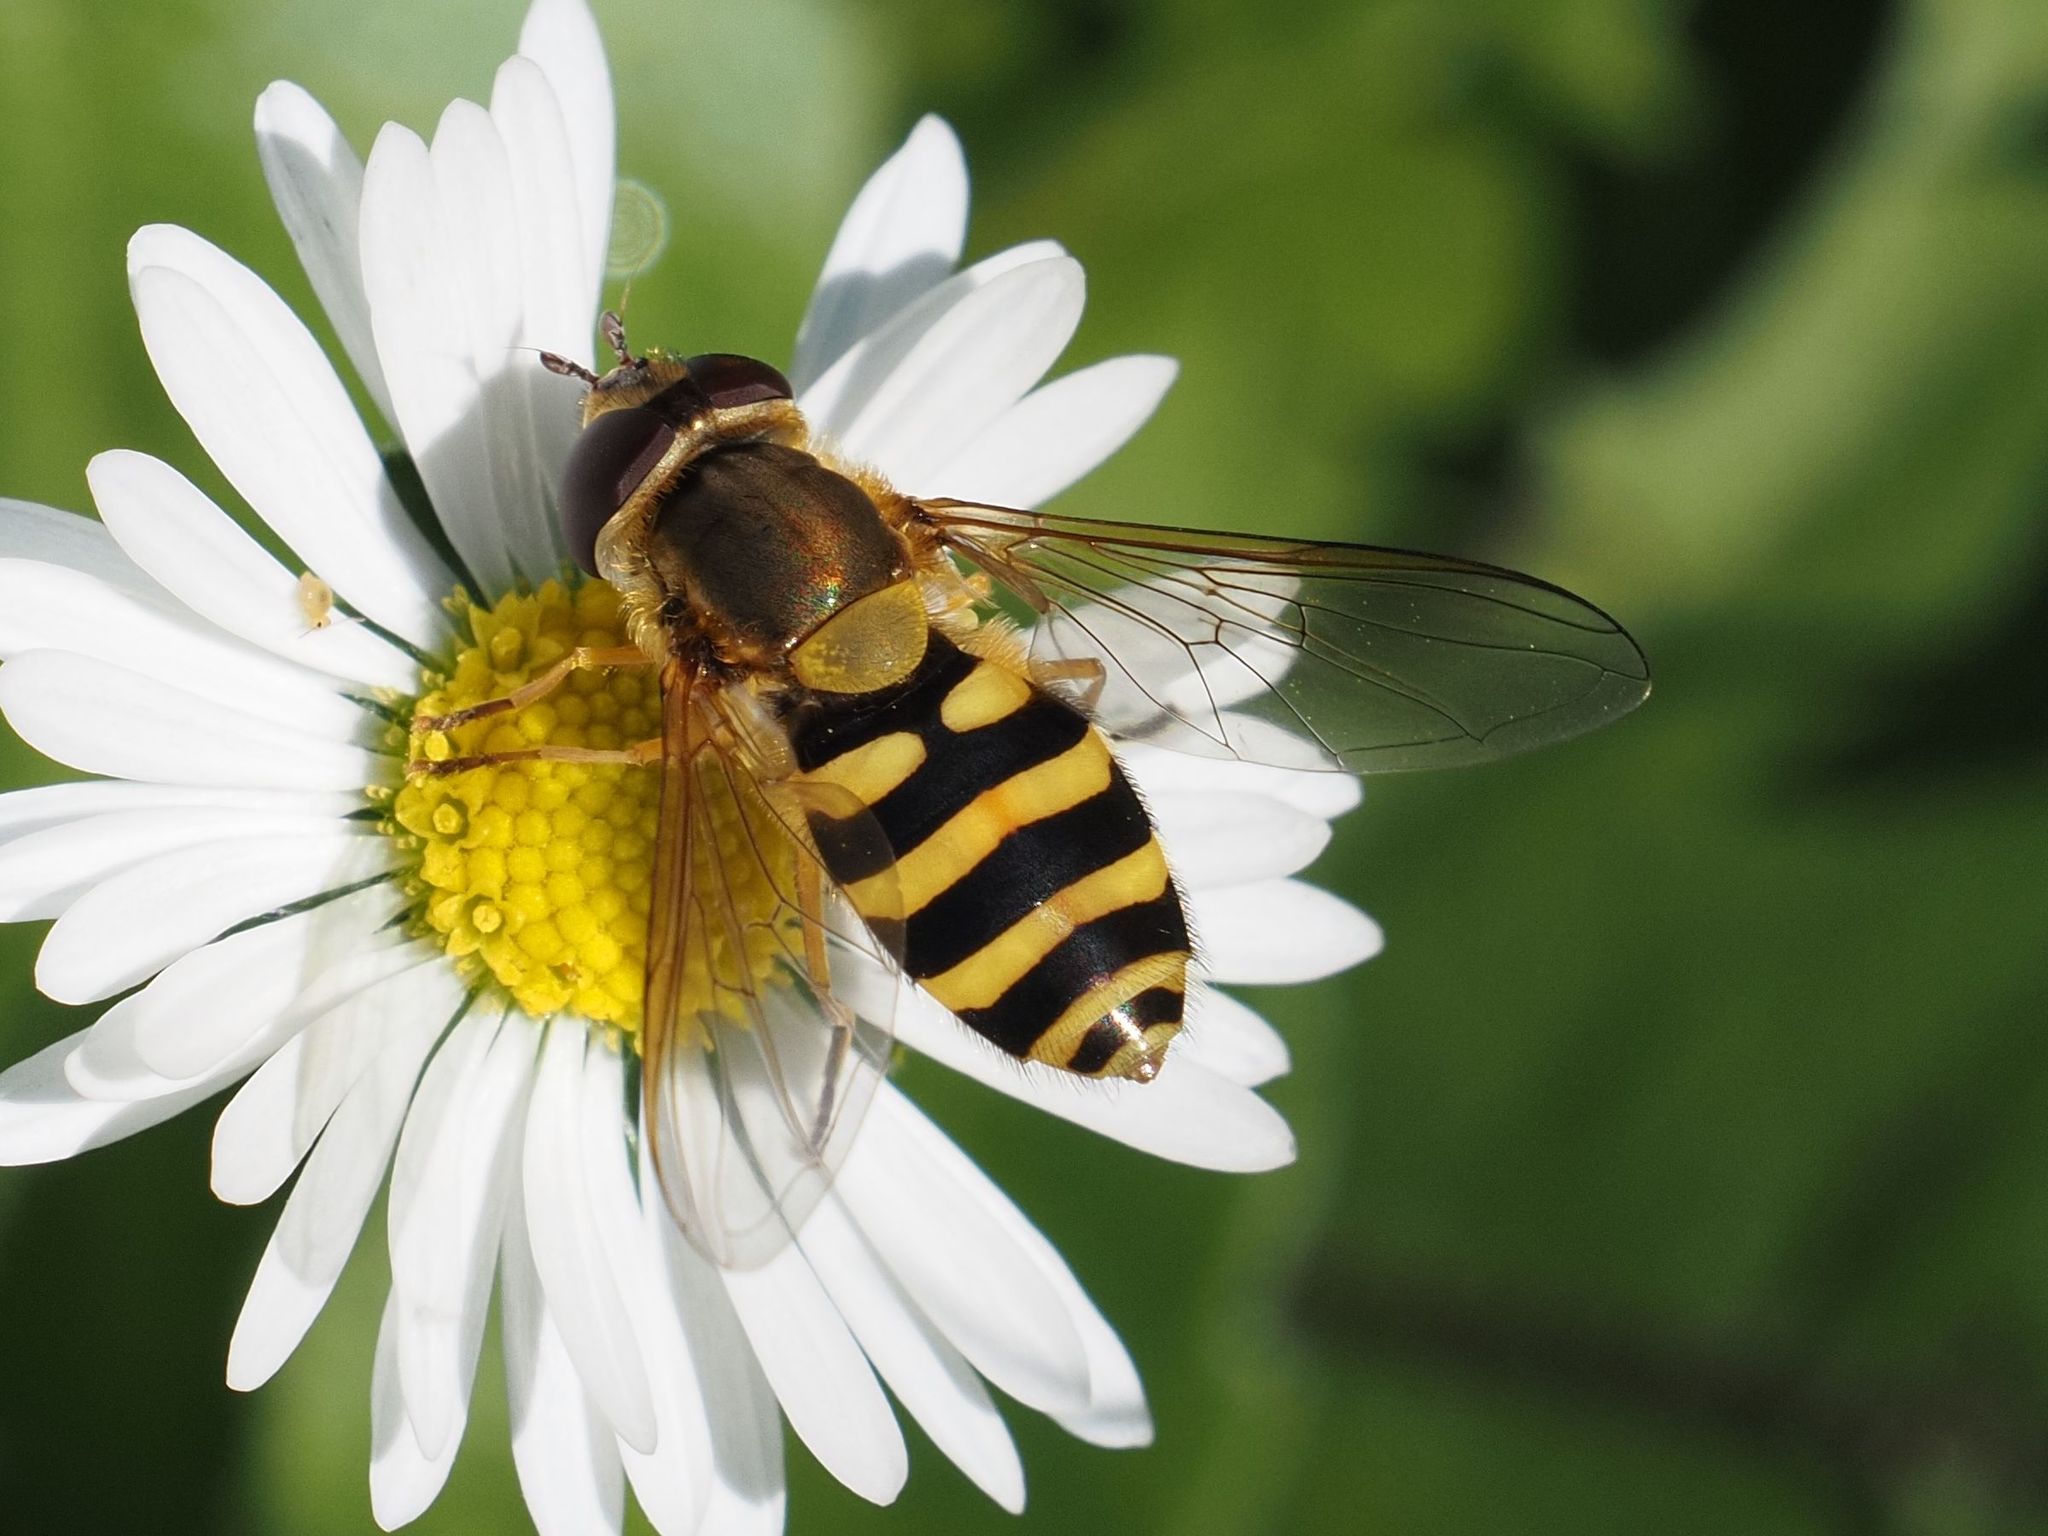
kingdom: Animalia
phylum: Arthropoda
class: Insecta
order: Diptera
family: Syrphidae
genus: Syrphus
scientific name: Syrphus ribesii
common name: Common flower fly
